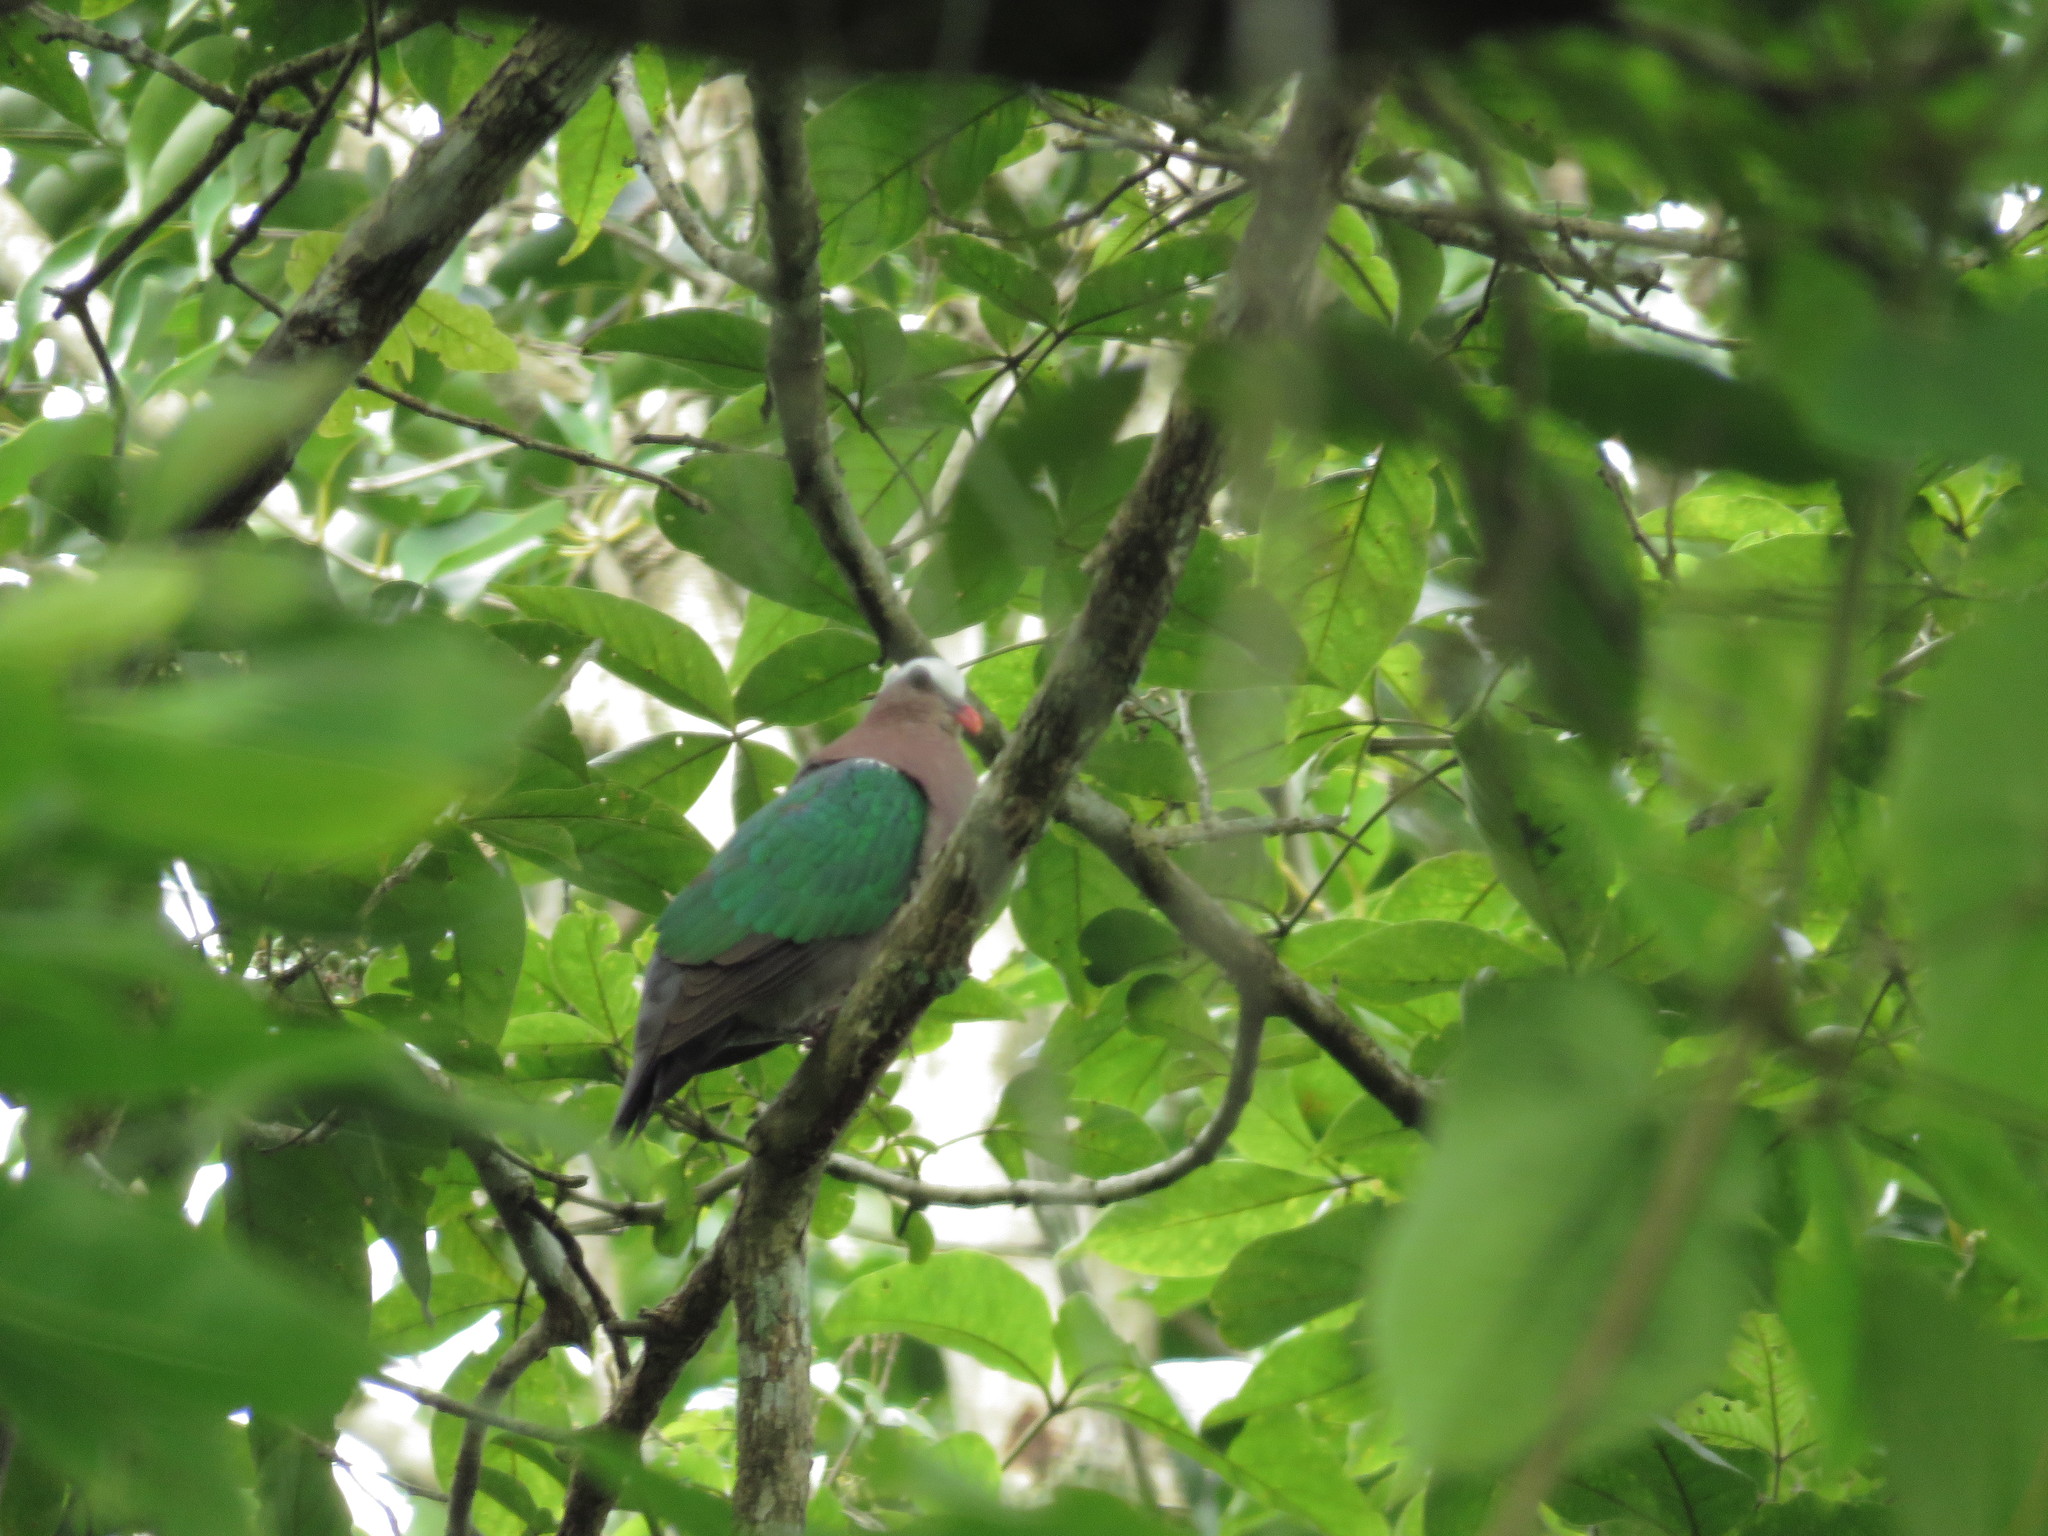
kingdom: Animalia
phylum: Chordata
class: Aves
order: Columbiformes
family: Columbidae
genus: Chalcophaps
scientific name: Chalcophaps indica
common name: Common emerald dove
